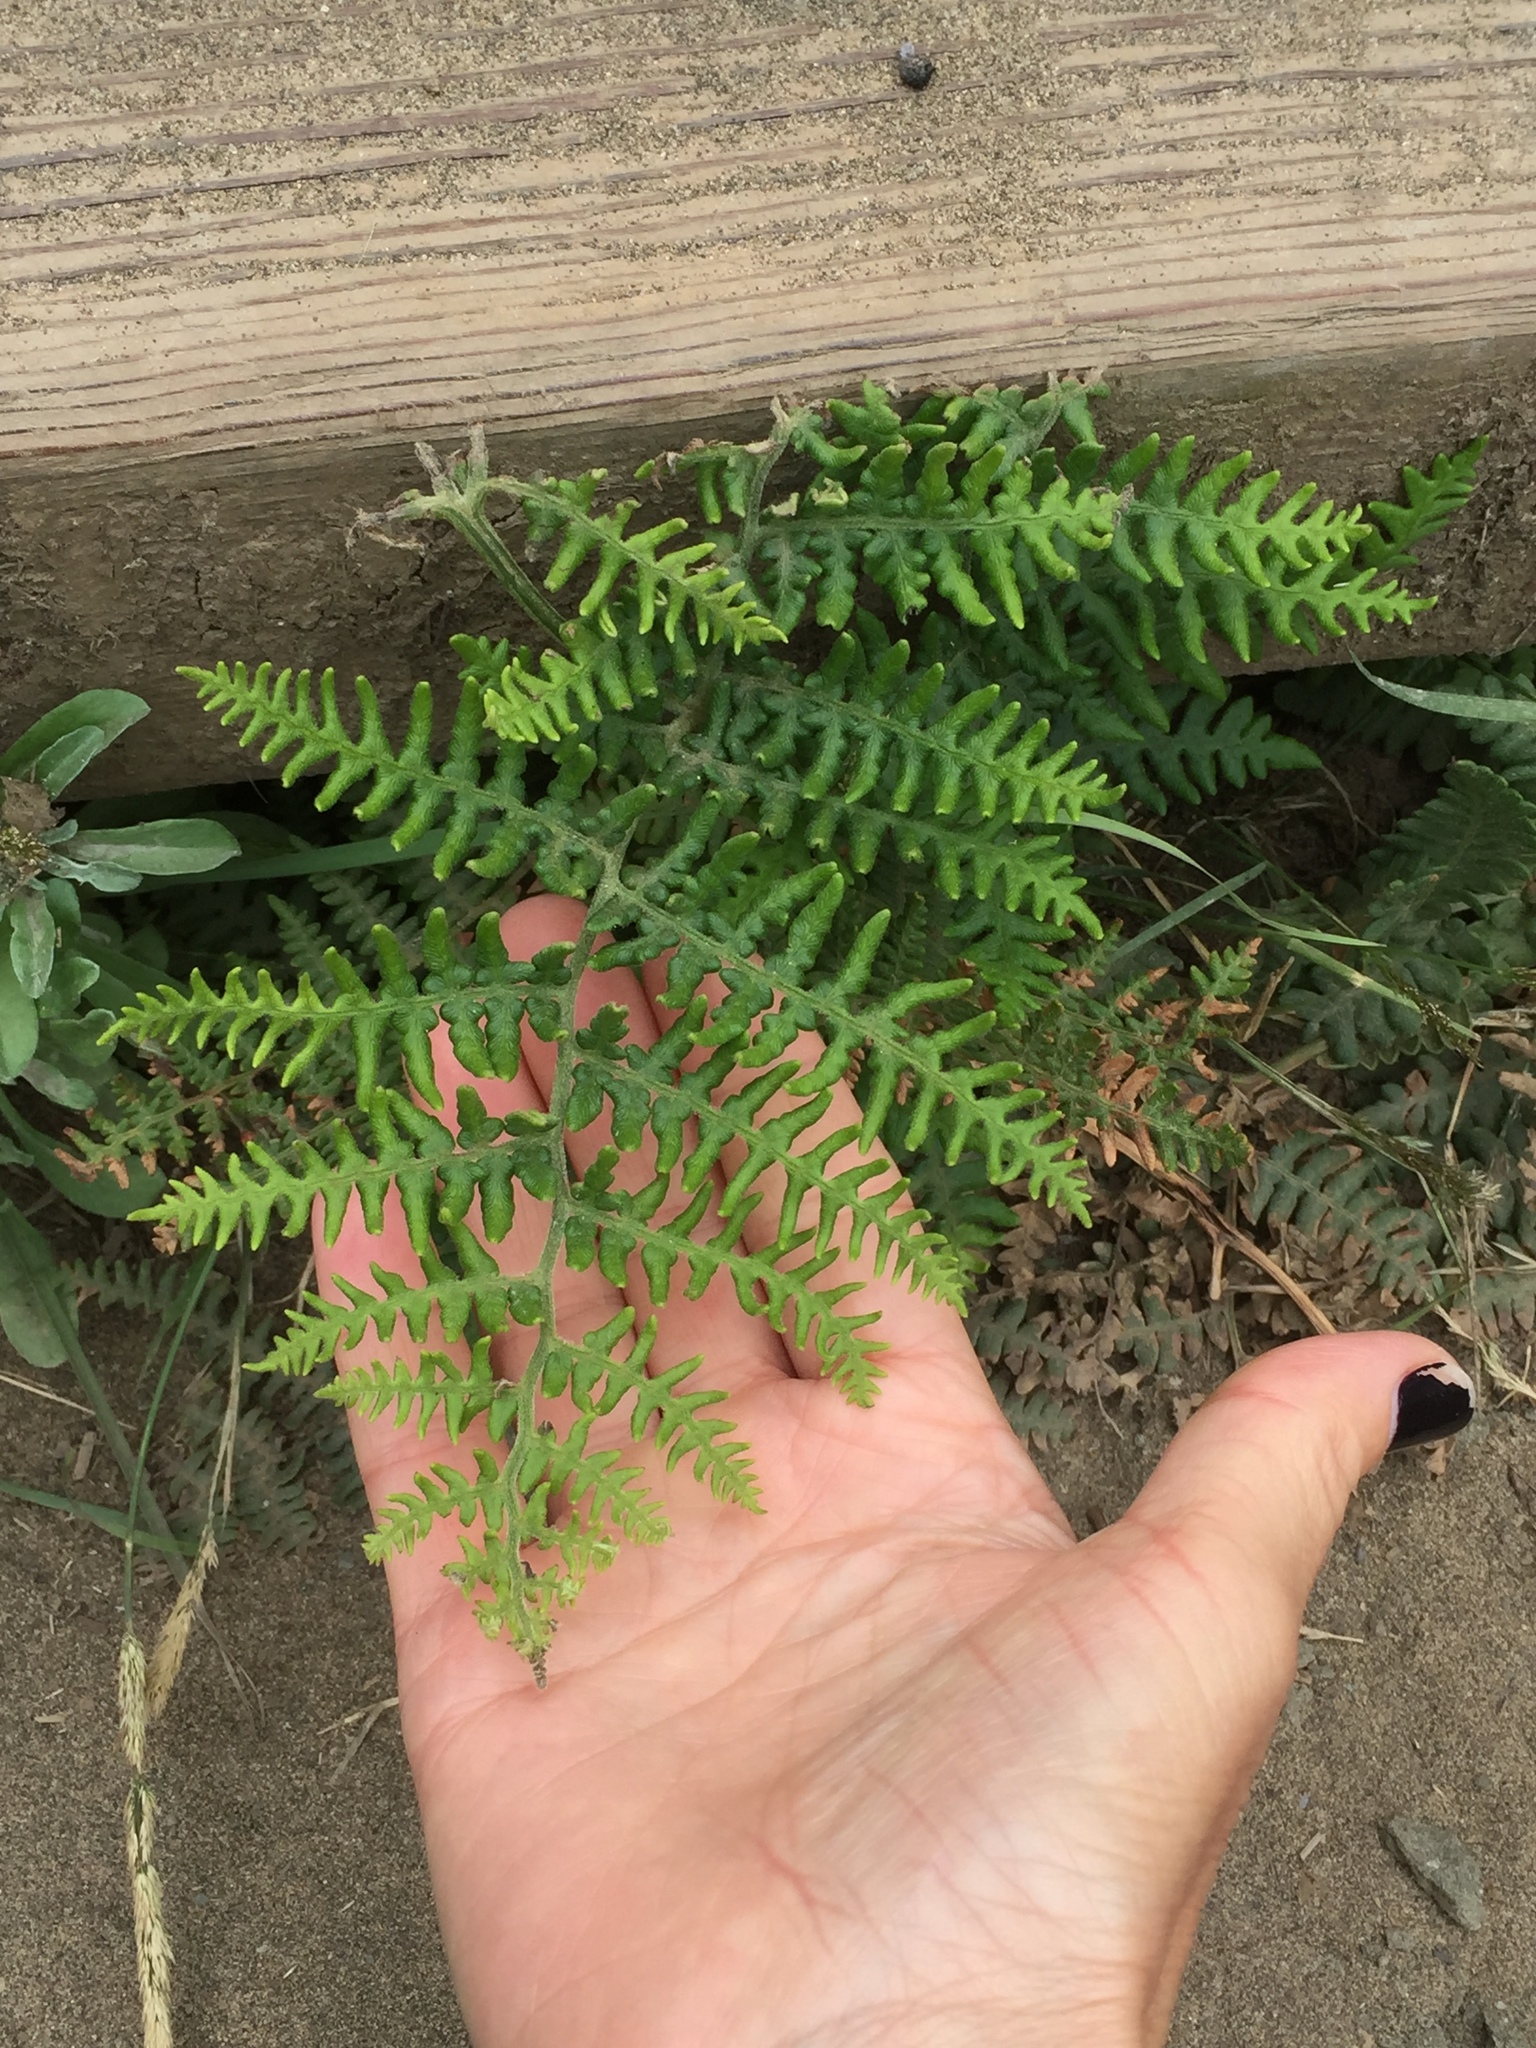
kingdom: Plantae
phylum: Tracheophyta
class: Polypodiopsida
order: Polypodiales
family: Dennstaedtiaceae
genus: Pteridium
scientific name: Pteridium aquilinum
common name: Bracken
